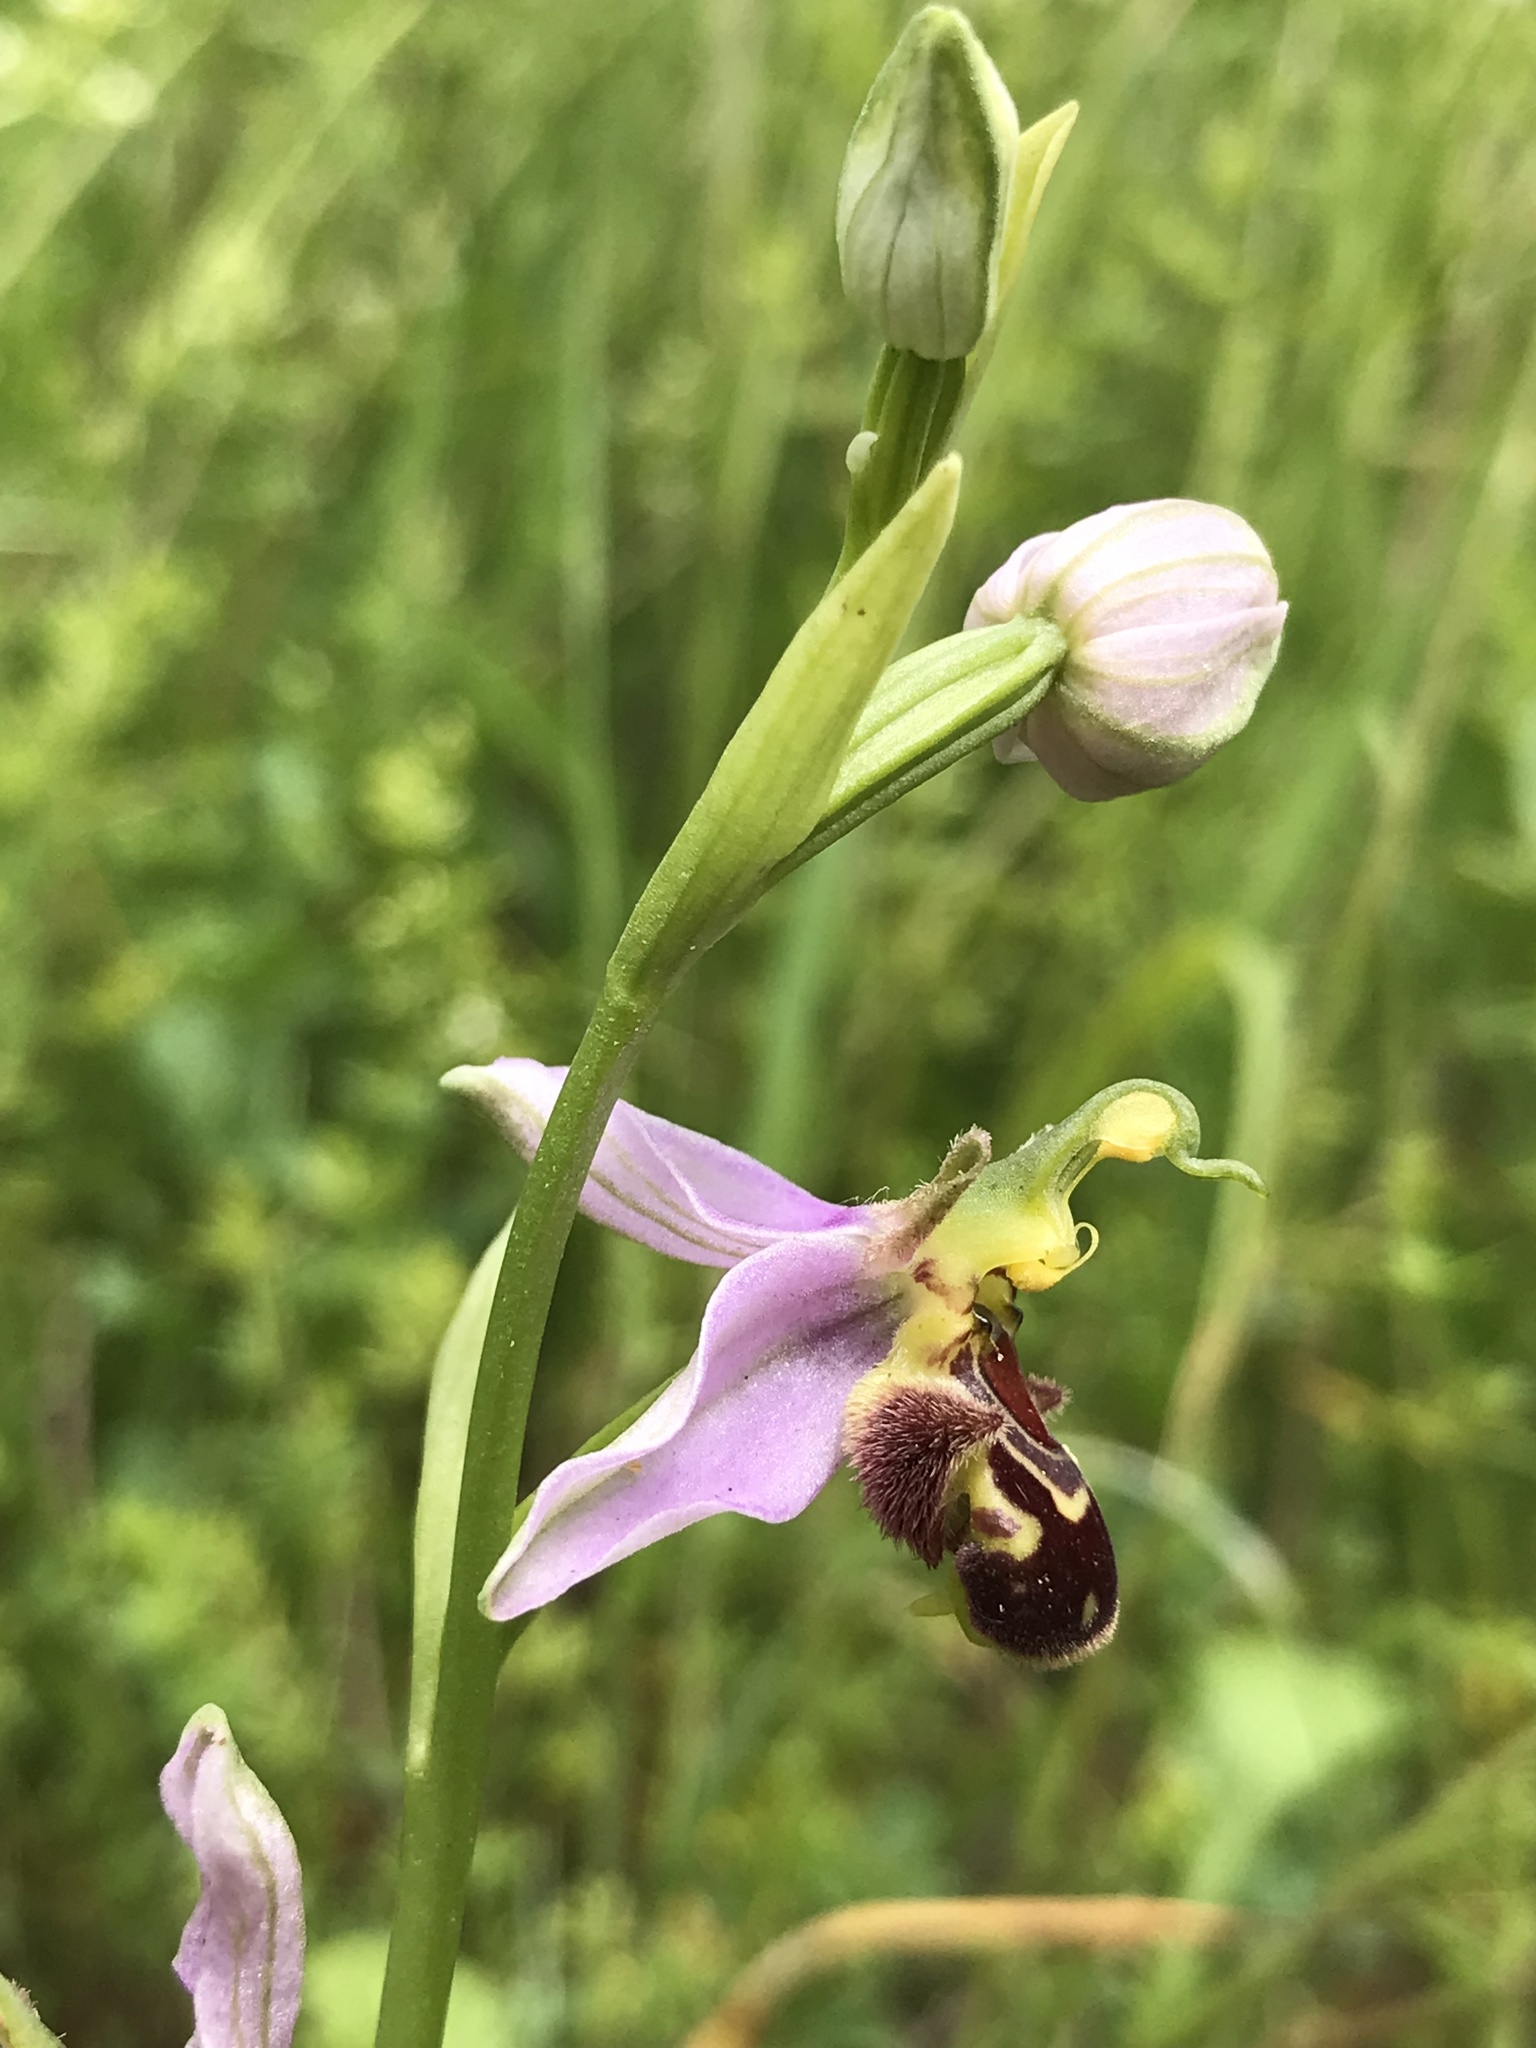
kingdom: Plantae
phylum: Tracheophyta
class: Liliopsida
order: Asparagales
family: Orchidaceae
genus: Ophrys
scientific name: Ophrys apifera
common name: Bee orchid
